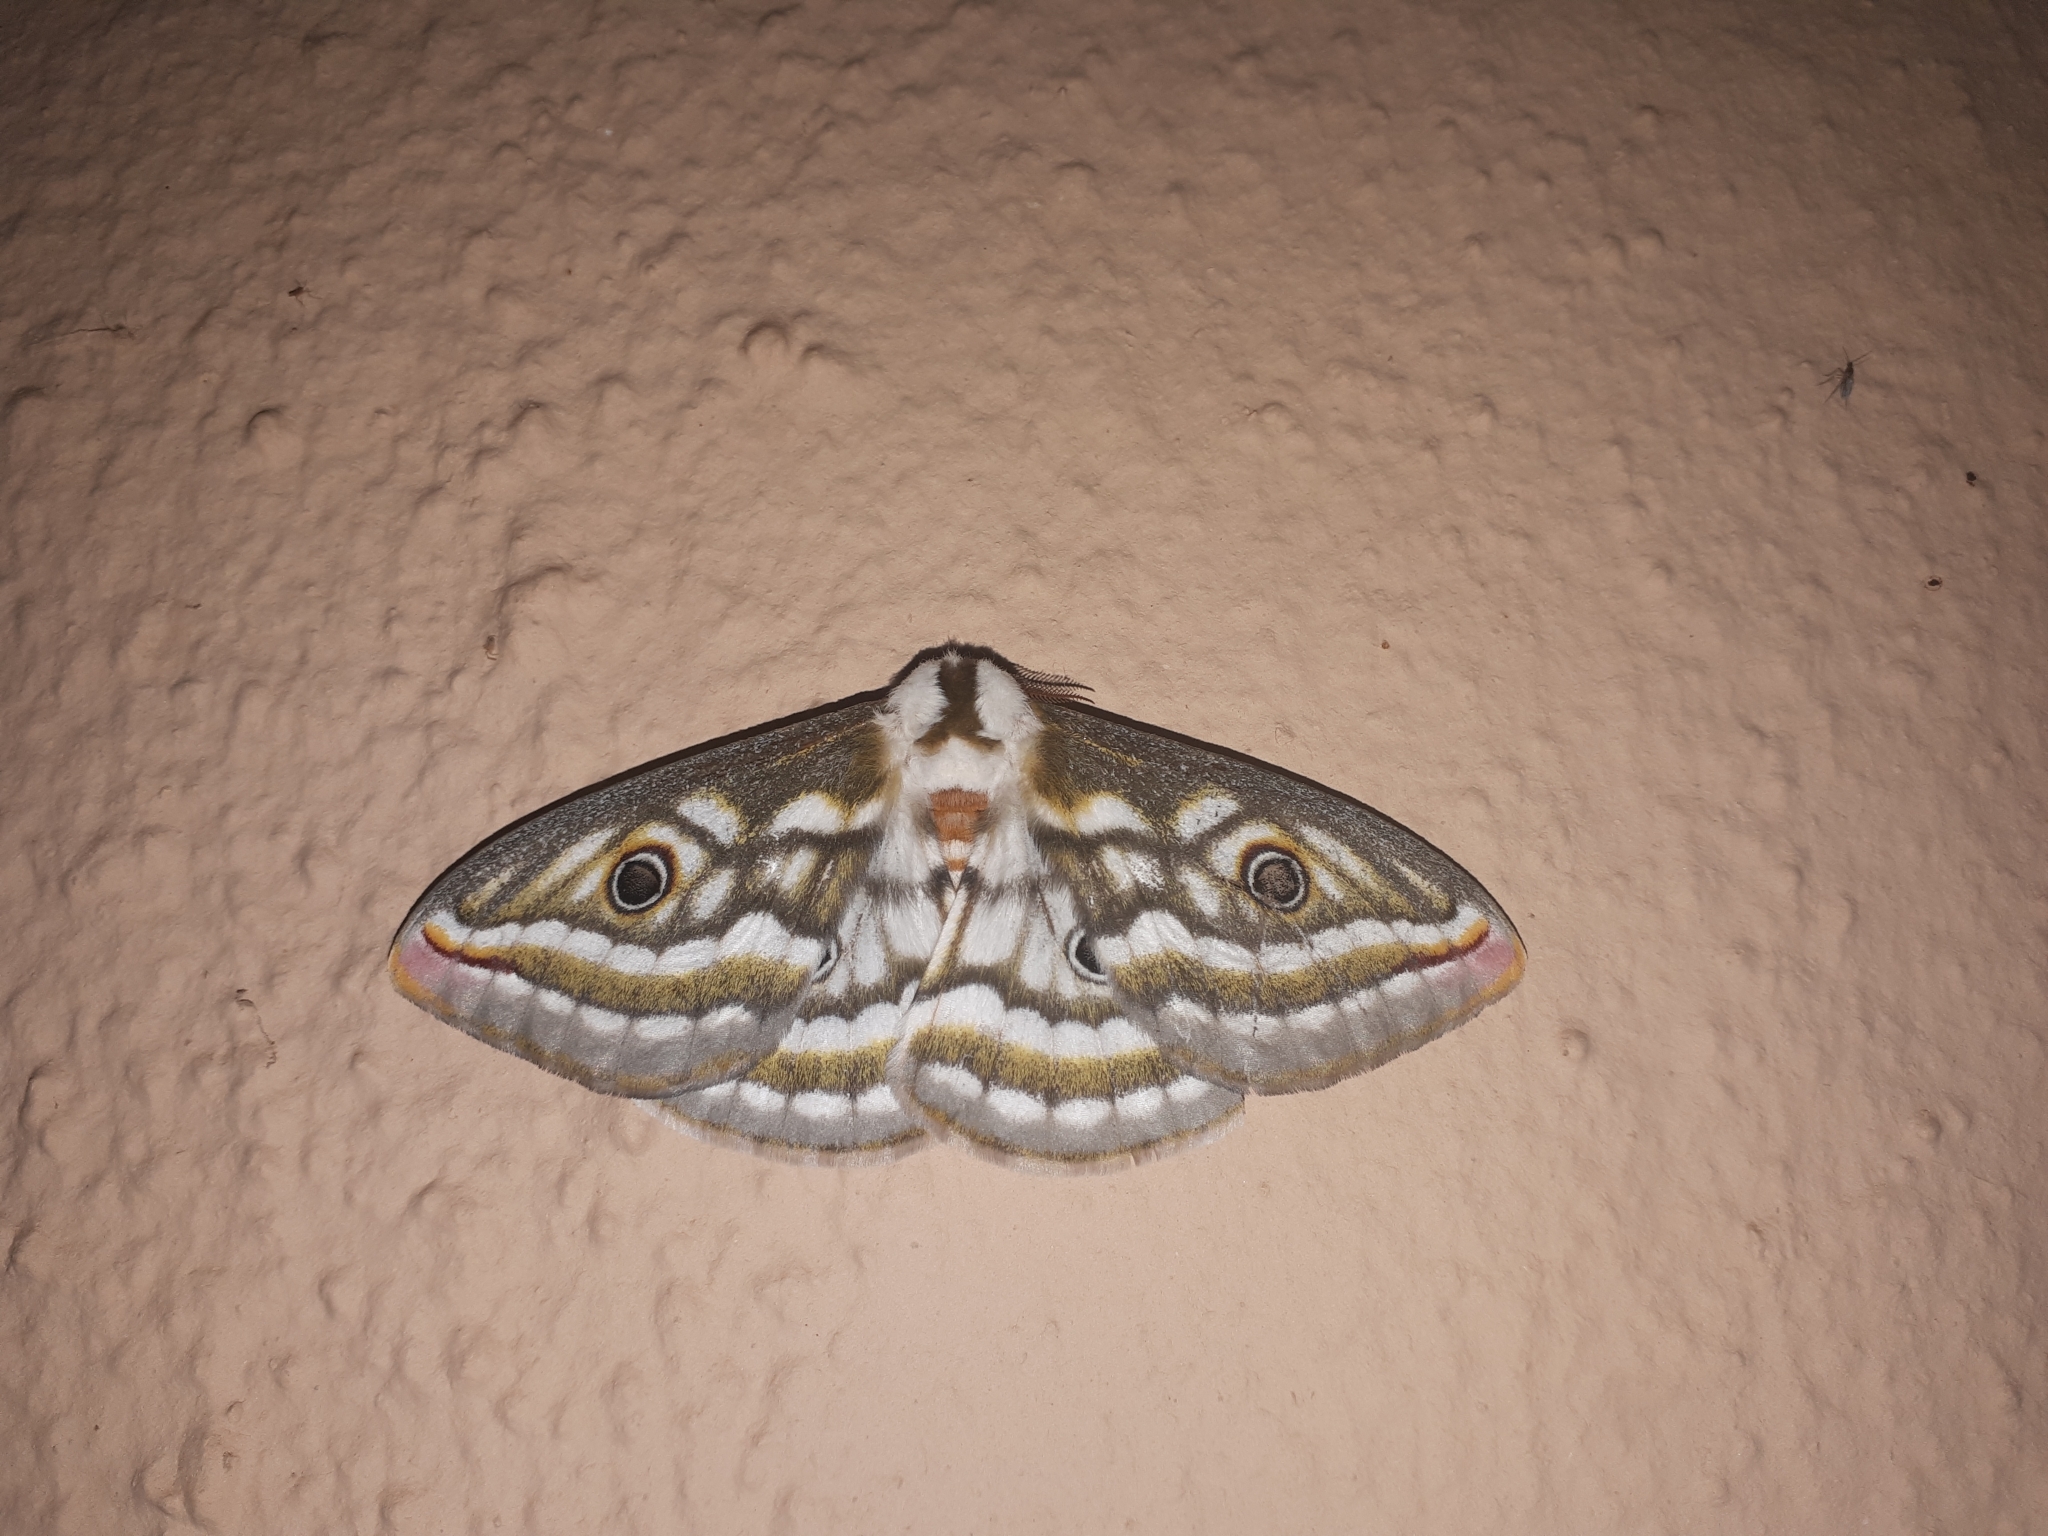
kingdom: Animalia
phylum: Arthropoda
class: Insecta
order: Lepidoptera
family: Saturniidae
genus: Heniocha
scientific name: Heniocha apollonia
